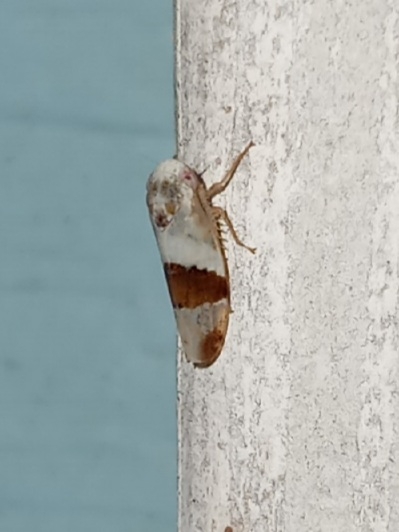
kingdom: Animalia
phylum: Arthropoda
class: Insecta
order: Hemiptera
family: Cicadellidae
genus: Norvellina
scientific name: Norvellina seminuda
